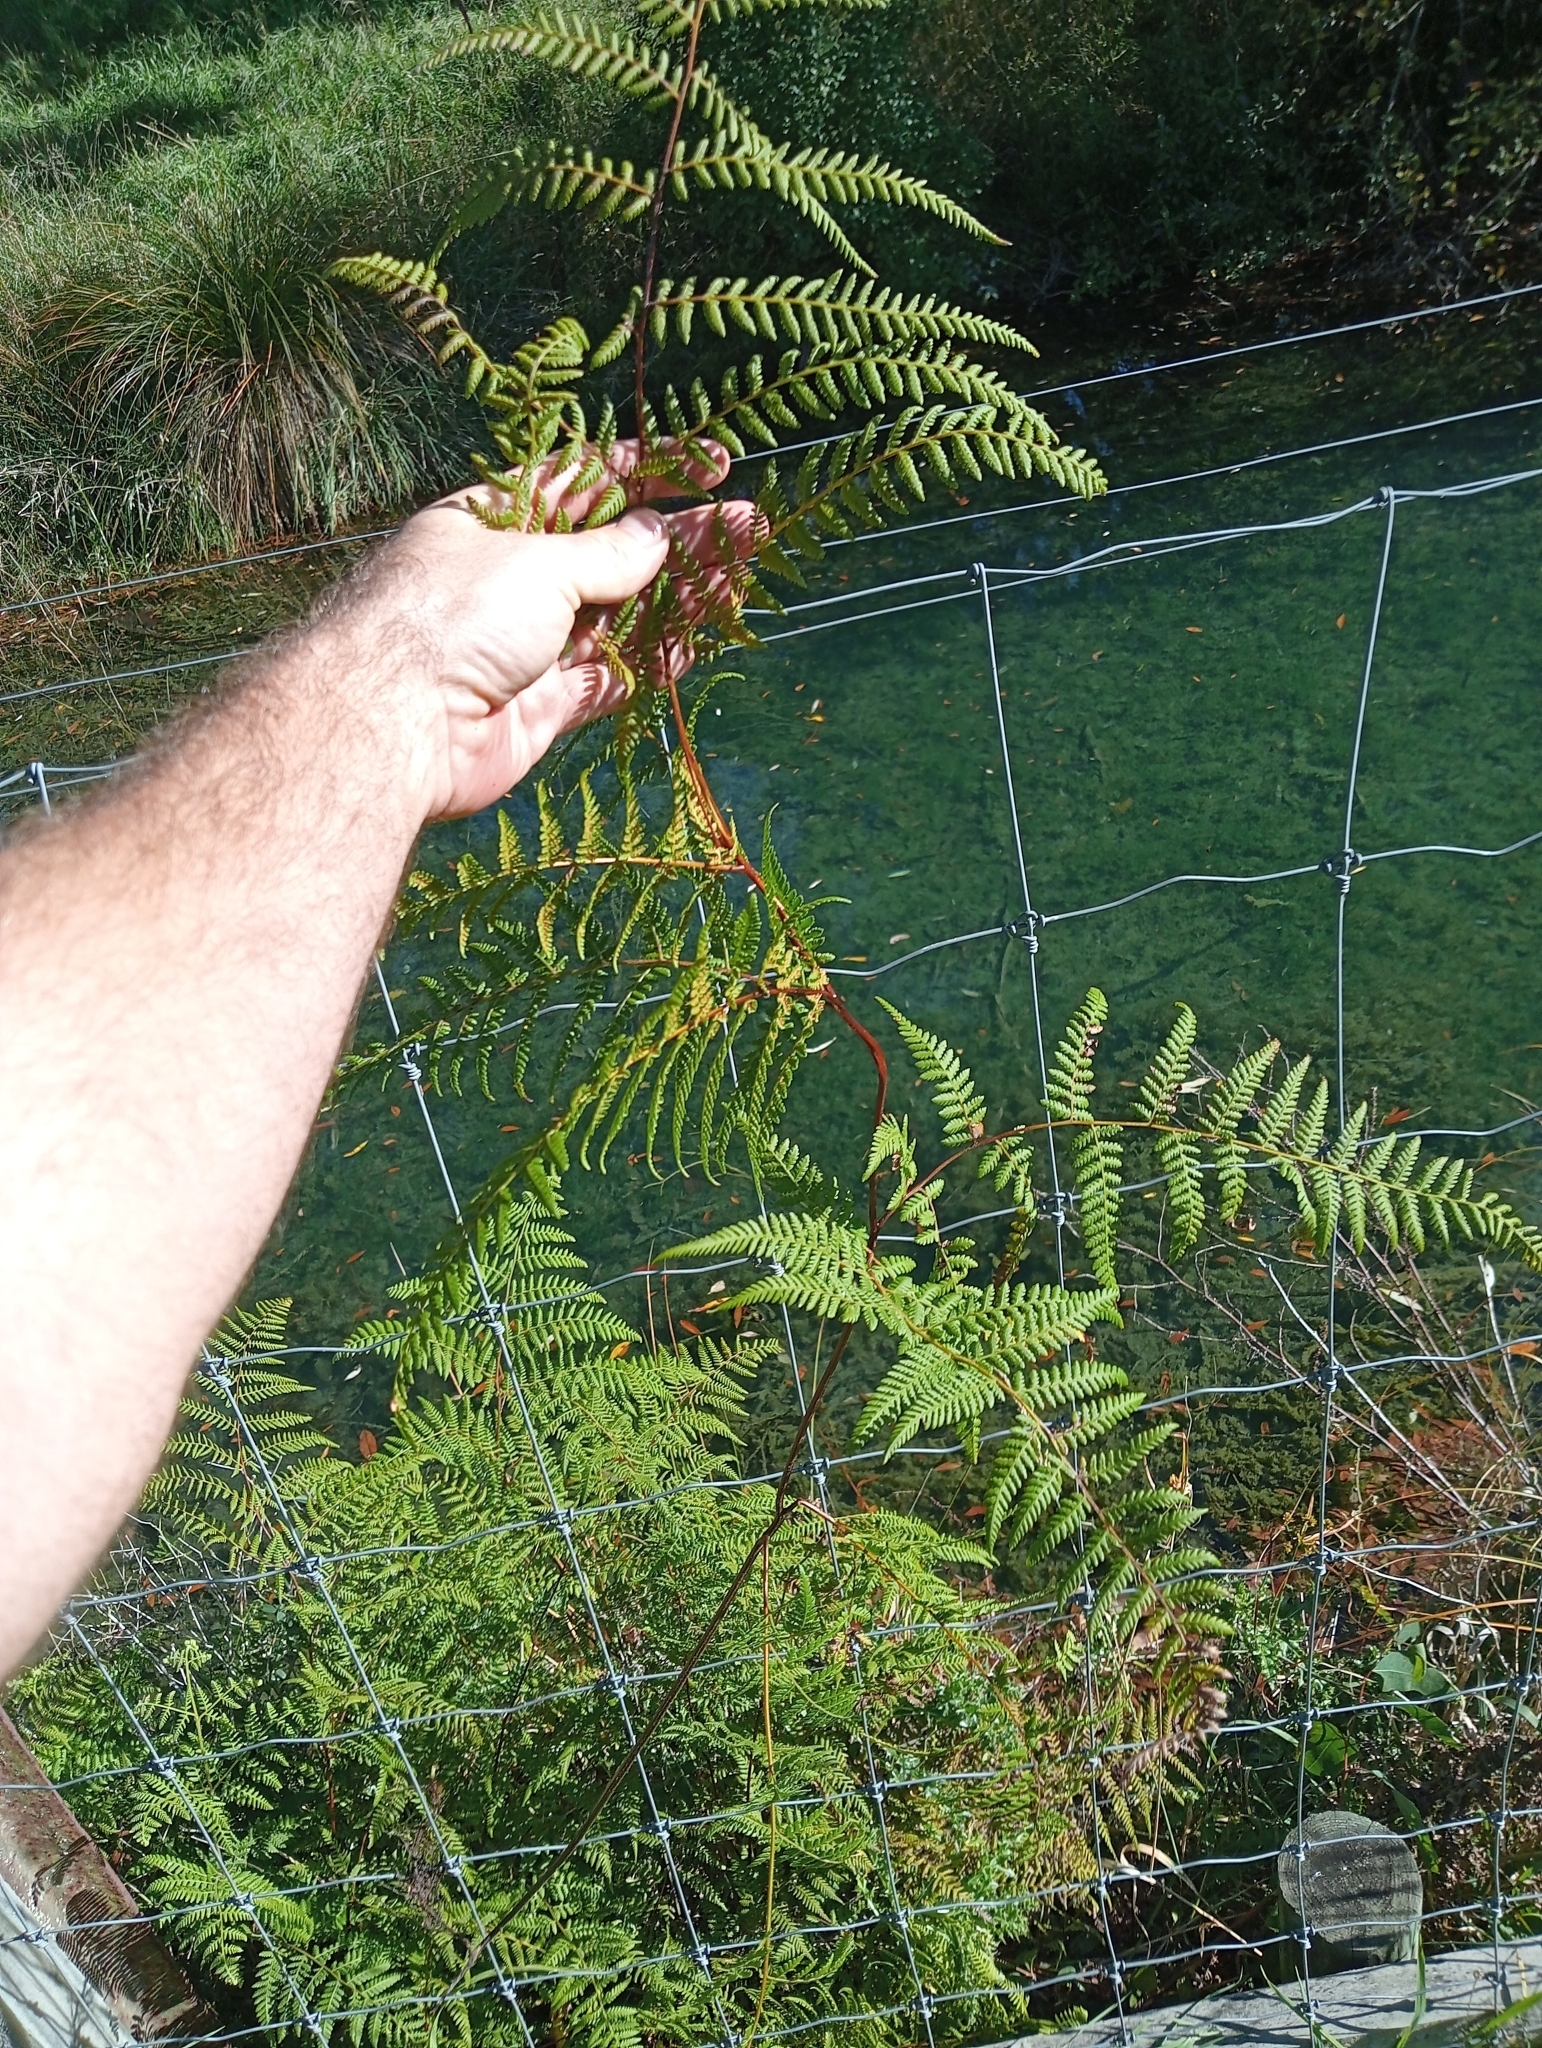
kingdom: Plantae
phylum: Tracheophyta
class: Polypodiopsida
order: Polypodiales
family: Dennstaedtiaceae
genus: Hypolepis
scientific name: Hypolepis ambigua
